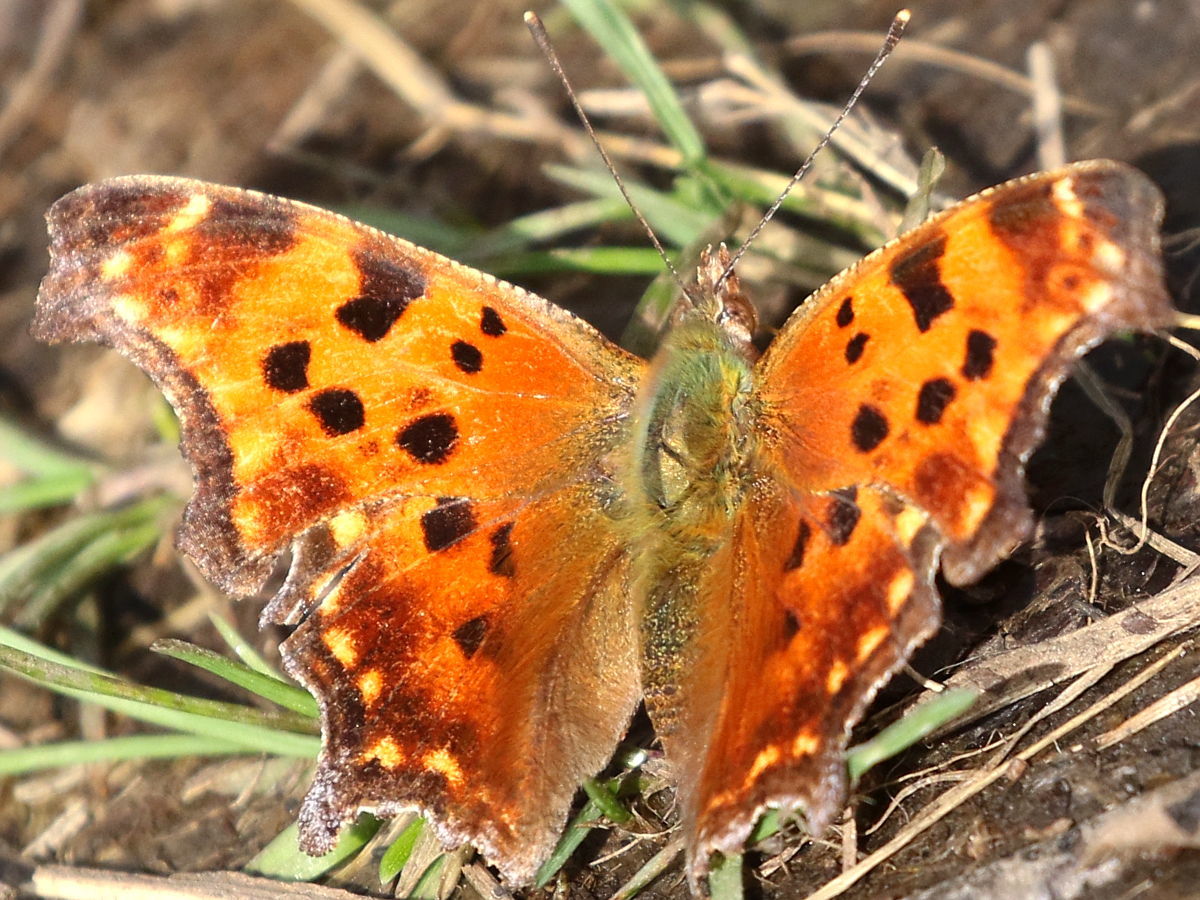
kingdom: Animalia
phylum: Arthropoda
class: Insecta
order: Lepidoptera
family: Nymphalidae
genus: Polygonia
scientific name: Polygonia comma
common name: Eastern comma
